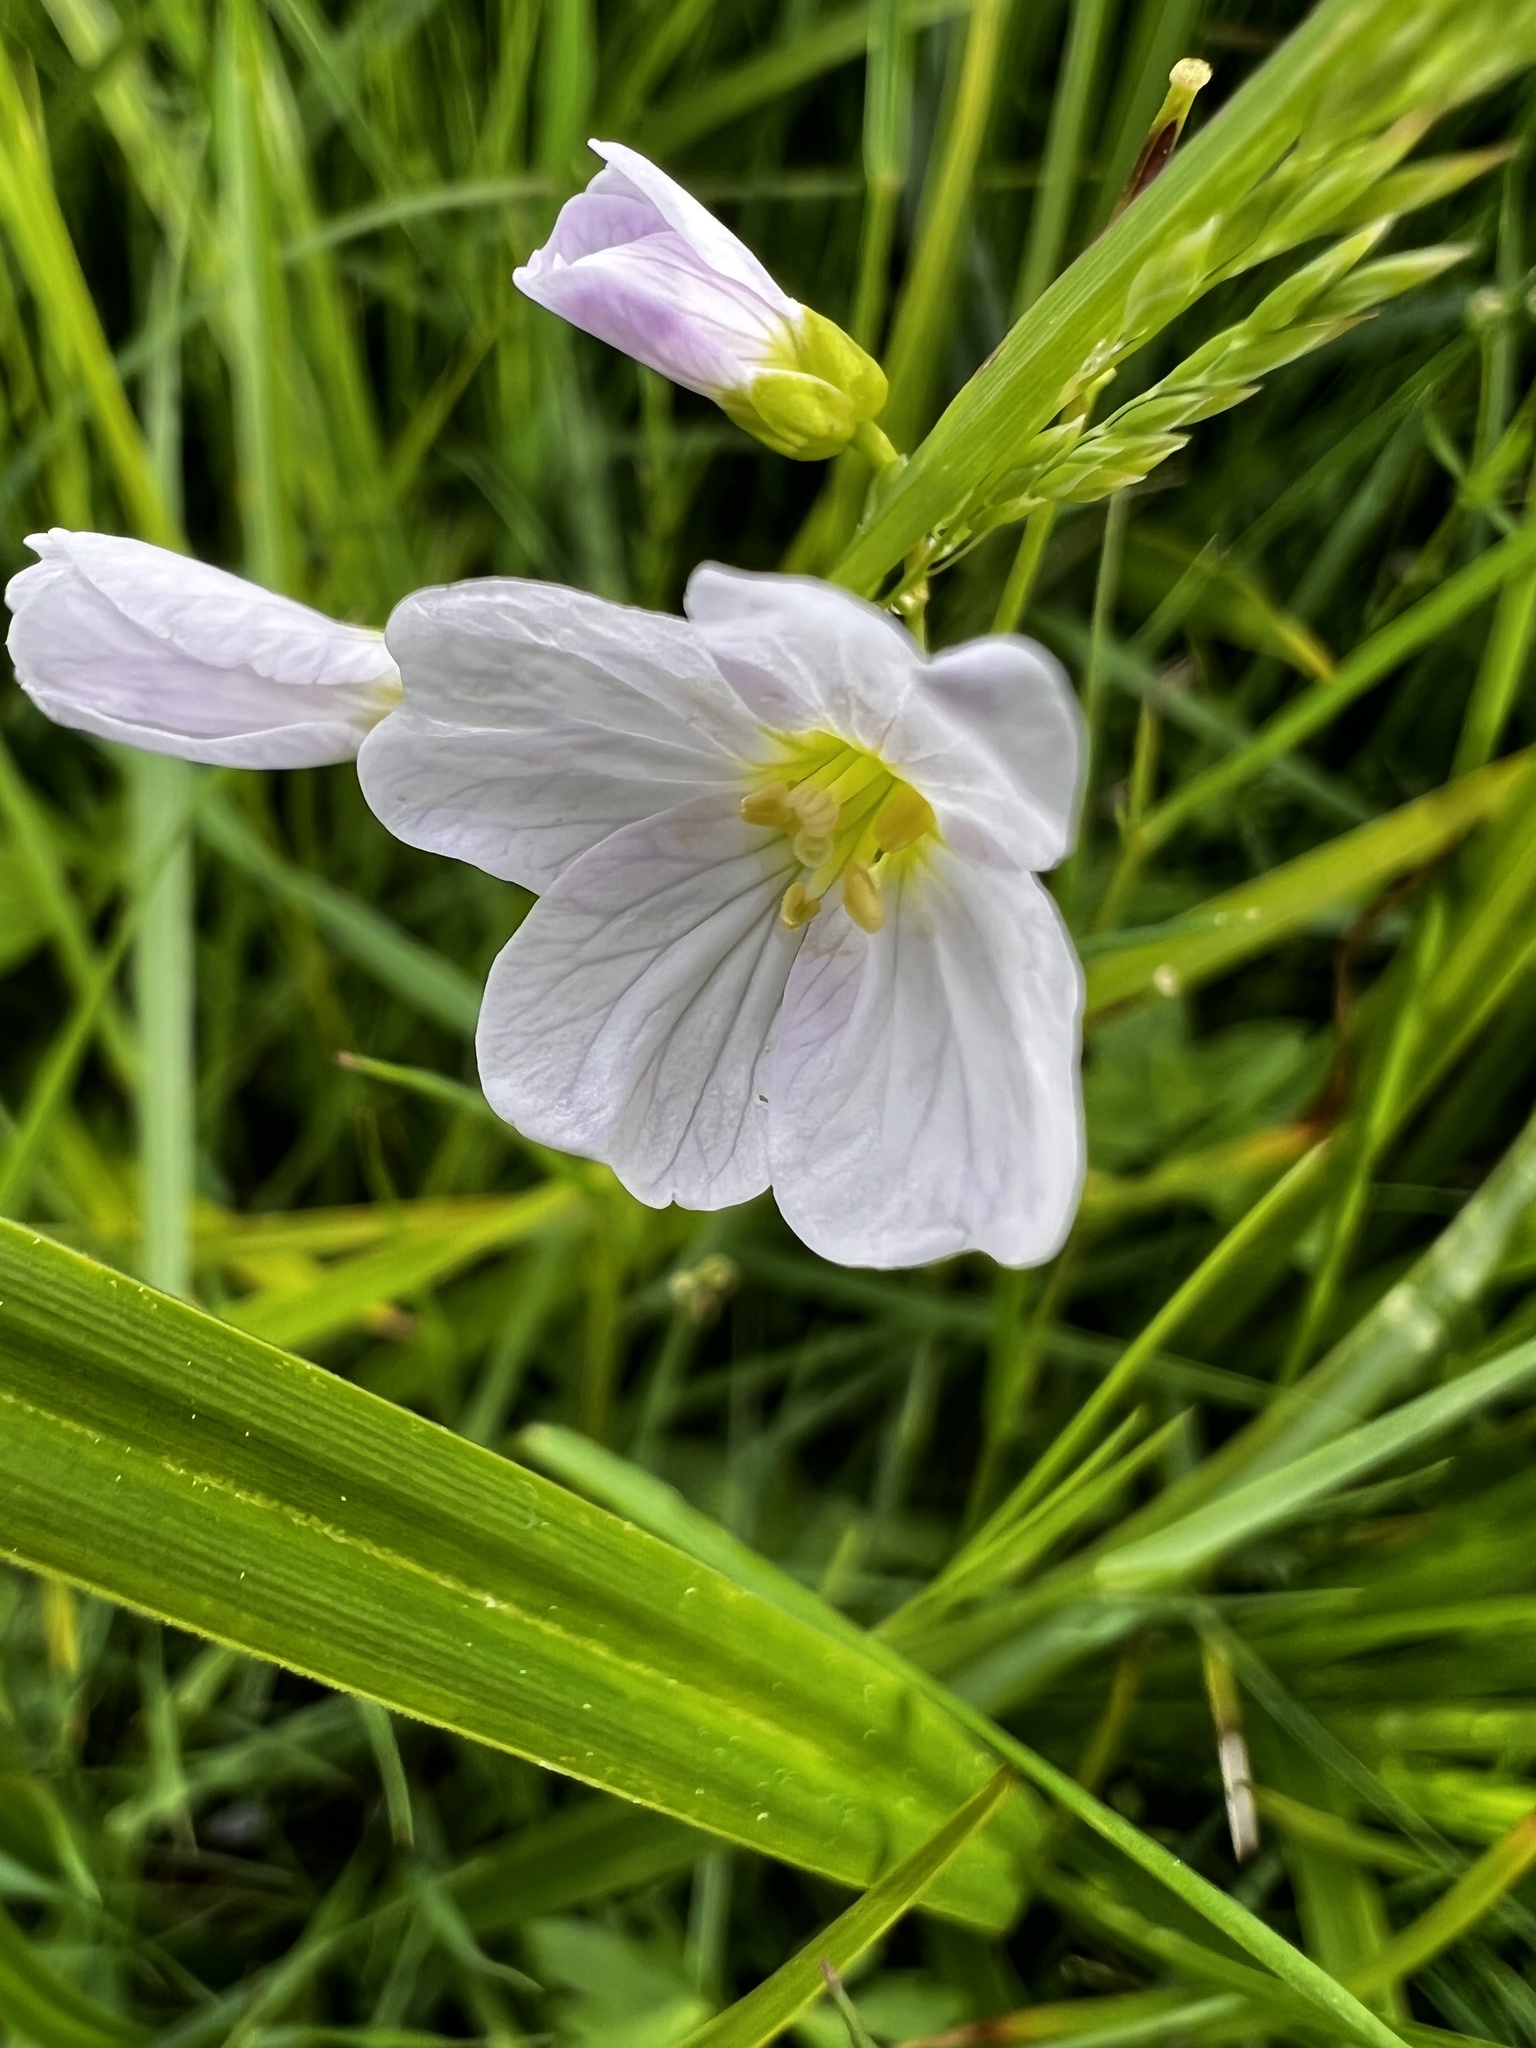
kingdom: Plantae
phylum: Tracheophyta
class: Magnoliopsida
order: Brassicales
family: Brassicaceae
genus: Cardamine
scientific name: Cardamine pratensis
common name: Cuckoo flower
